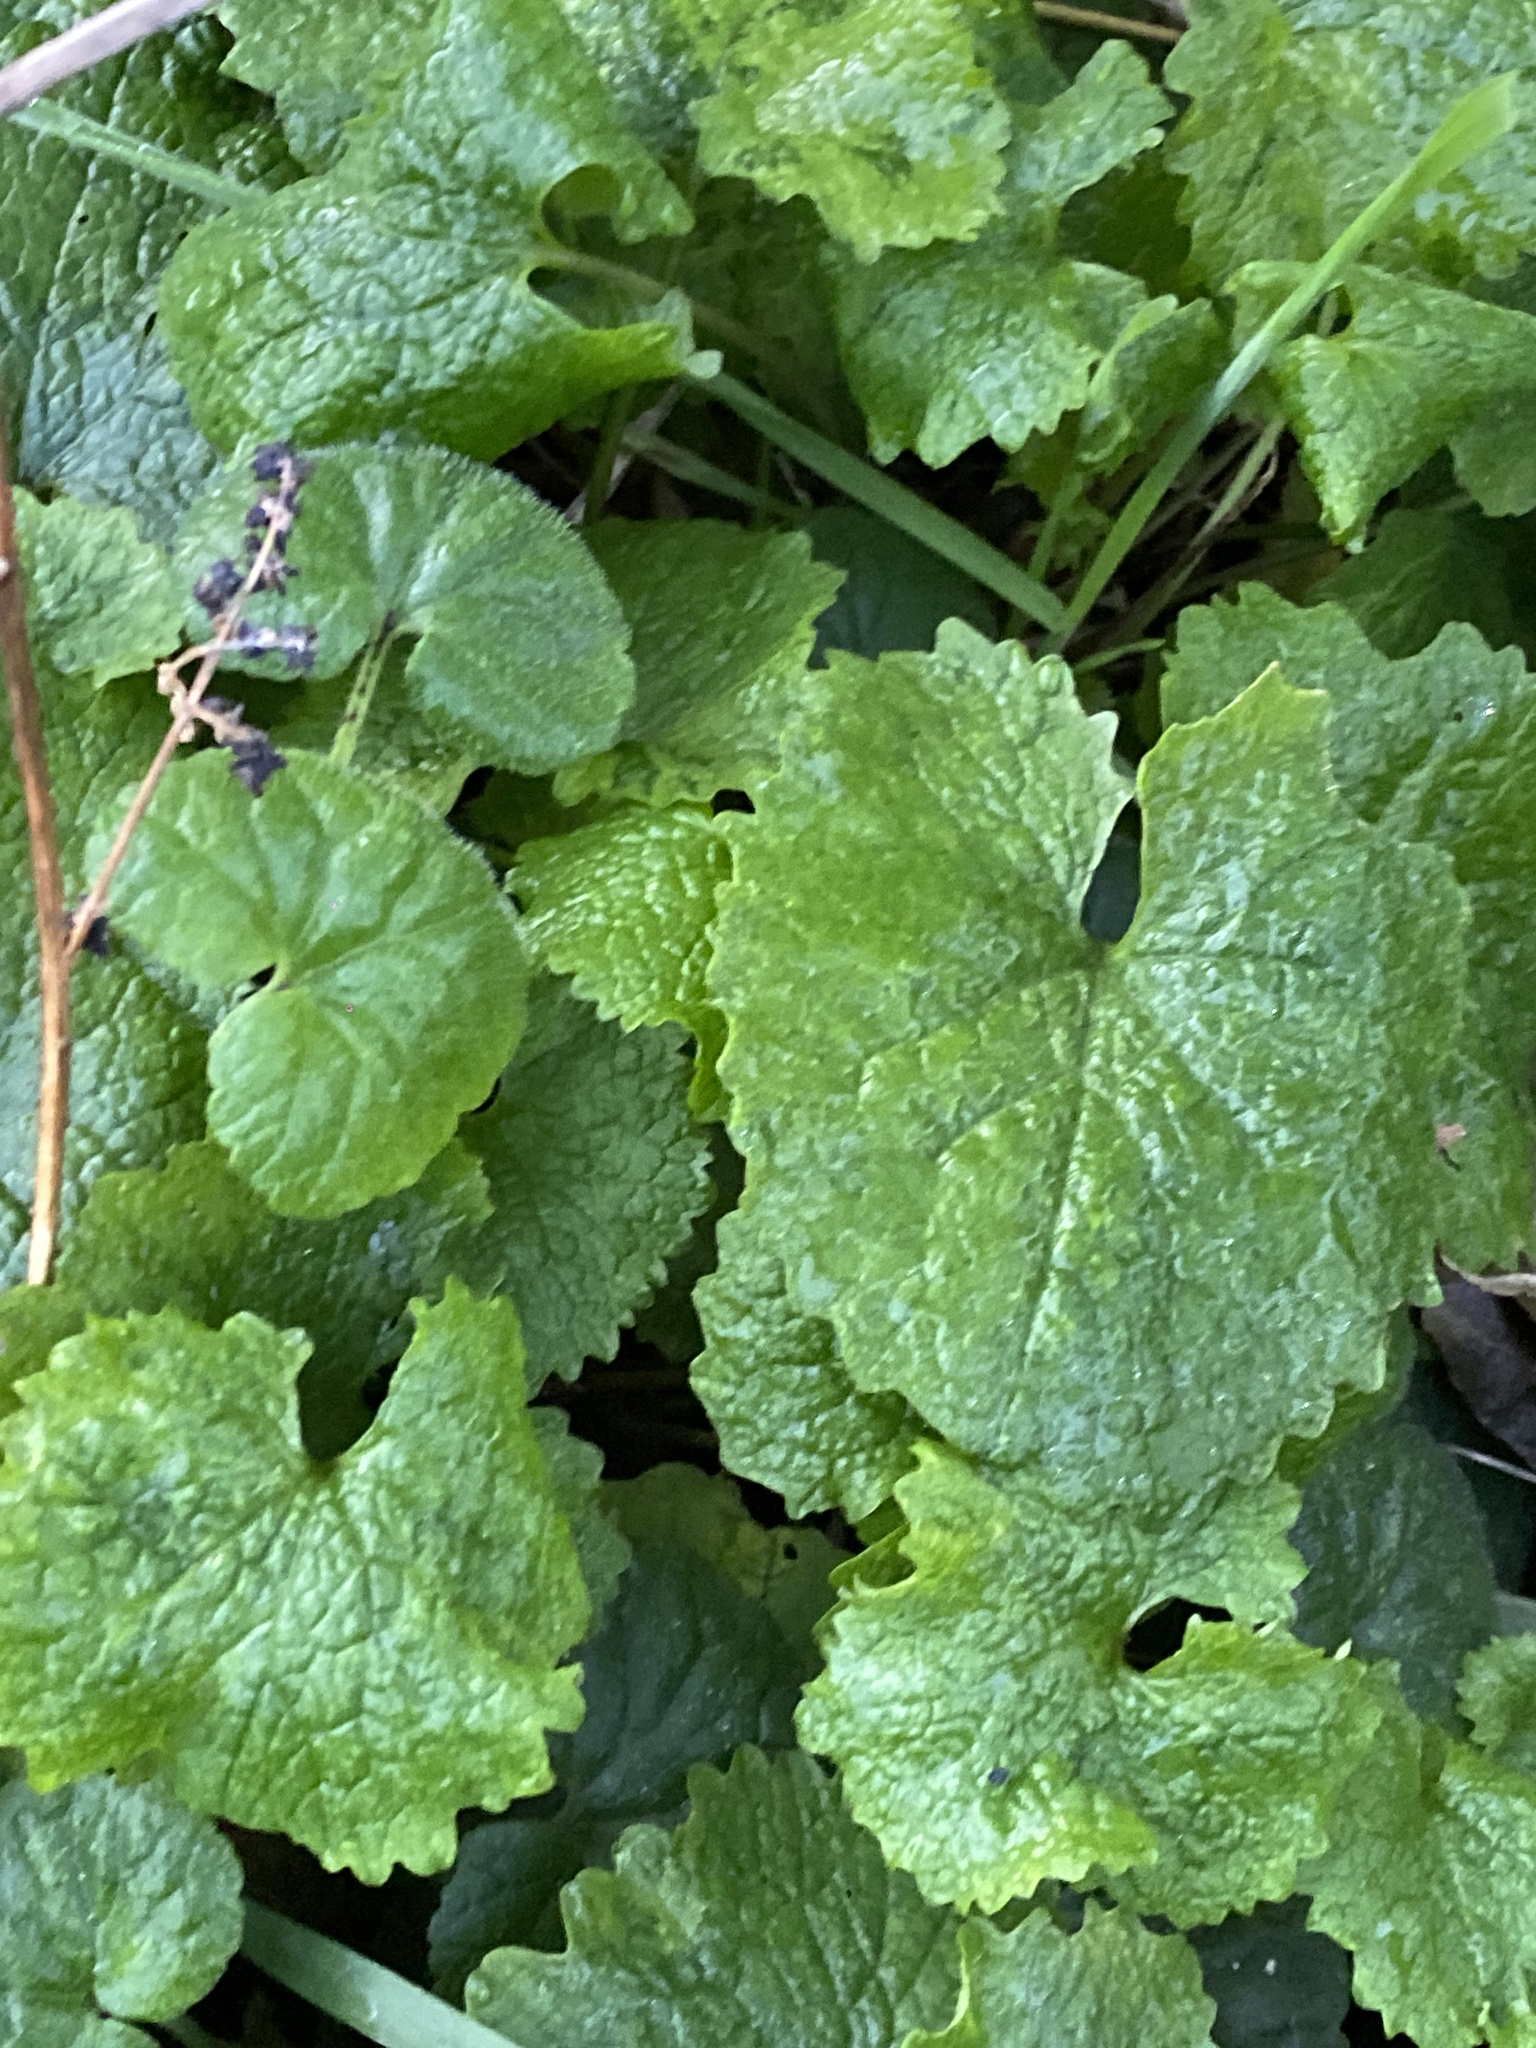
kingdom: Plantae
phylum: Tracheophyta
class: Magnoliopsida
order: Brassicales
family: Brassicaceae
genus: Alliaria
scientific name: Alliaria petiolata
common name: Garlic mustard
